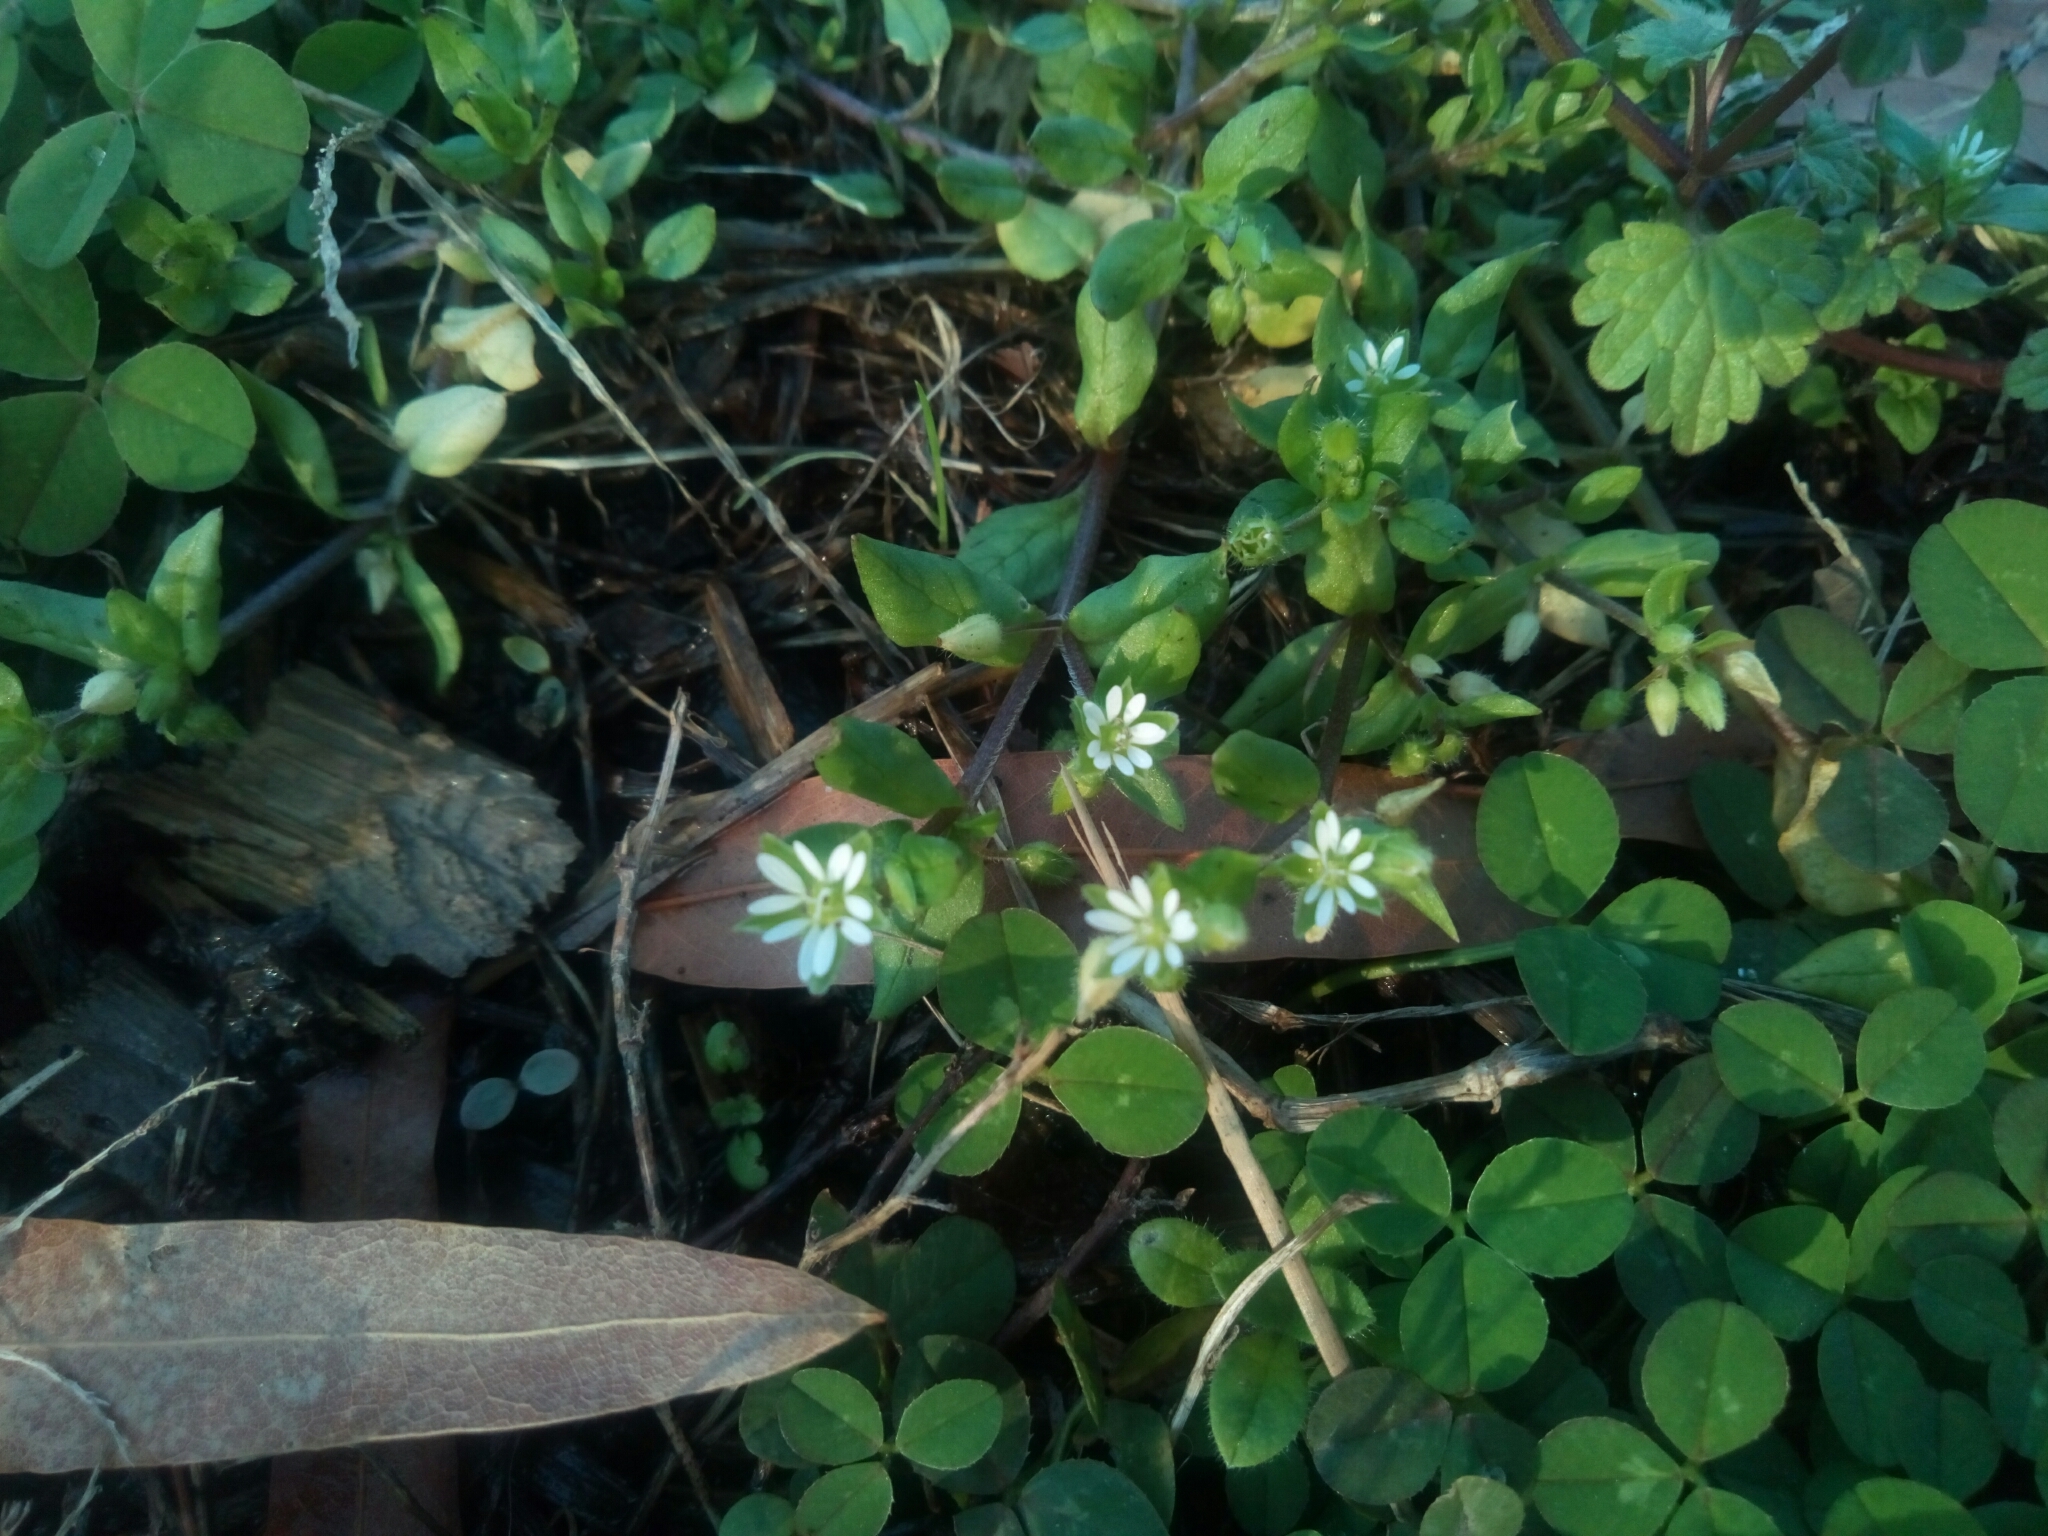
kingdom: Plantae
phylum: Tracheophyta
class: Magnoliopsida
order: Caryophyllales
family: Caryophyllaceae
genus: Stellaria
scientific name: Stellaria media
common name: Common chickweed
